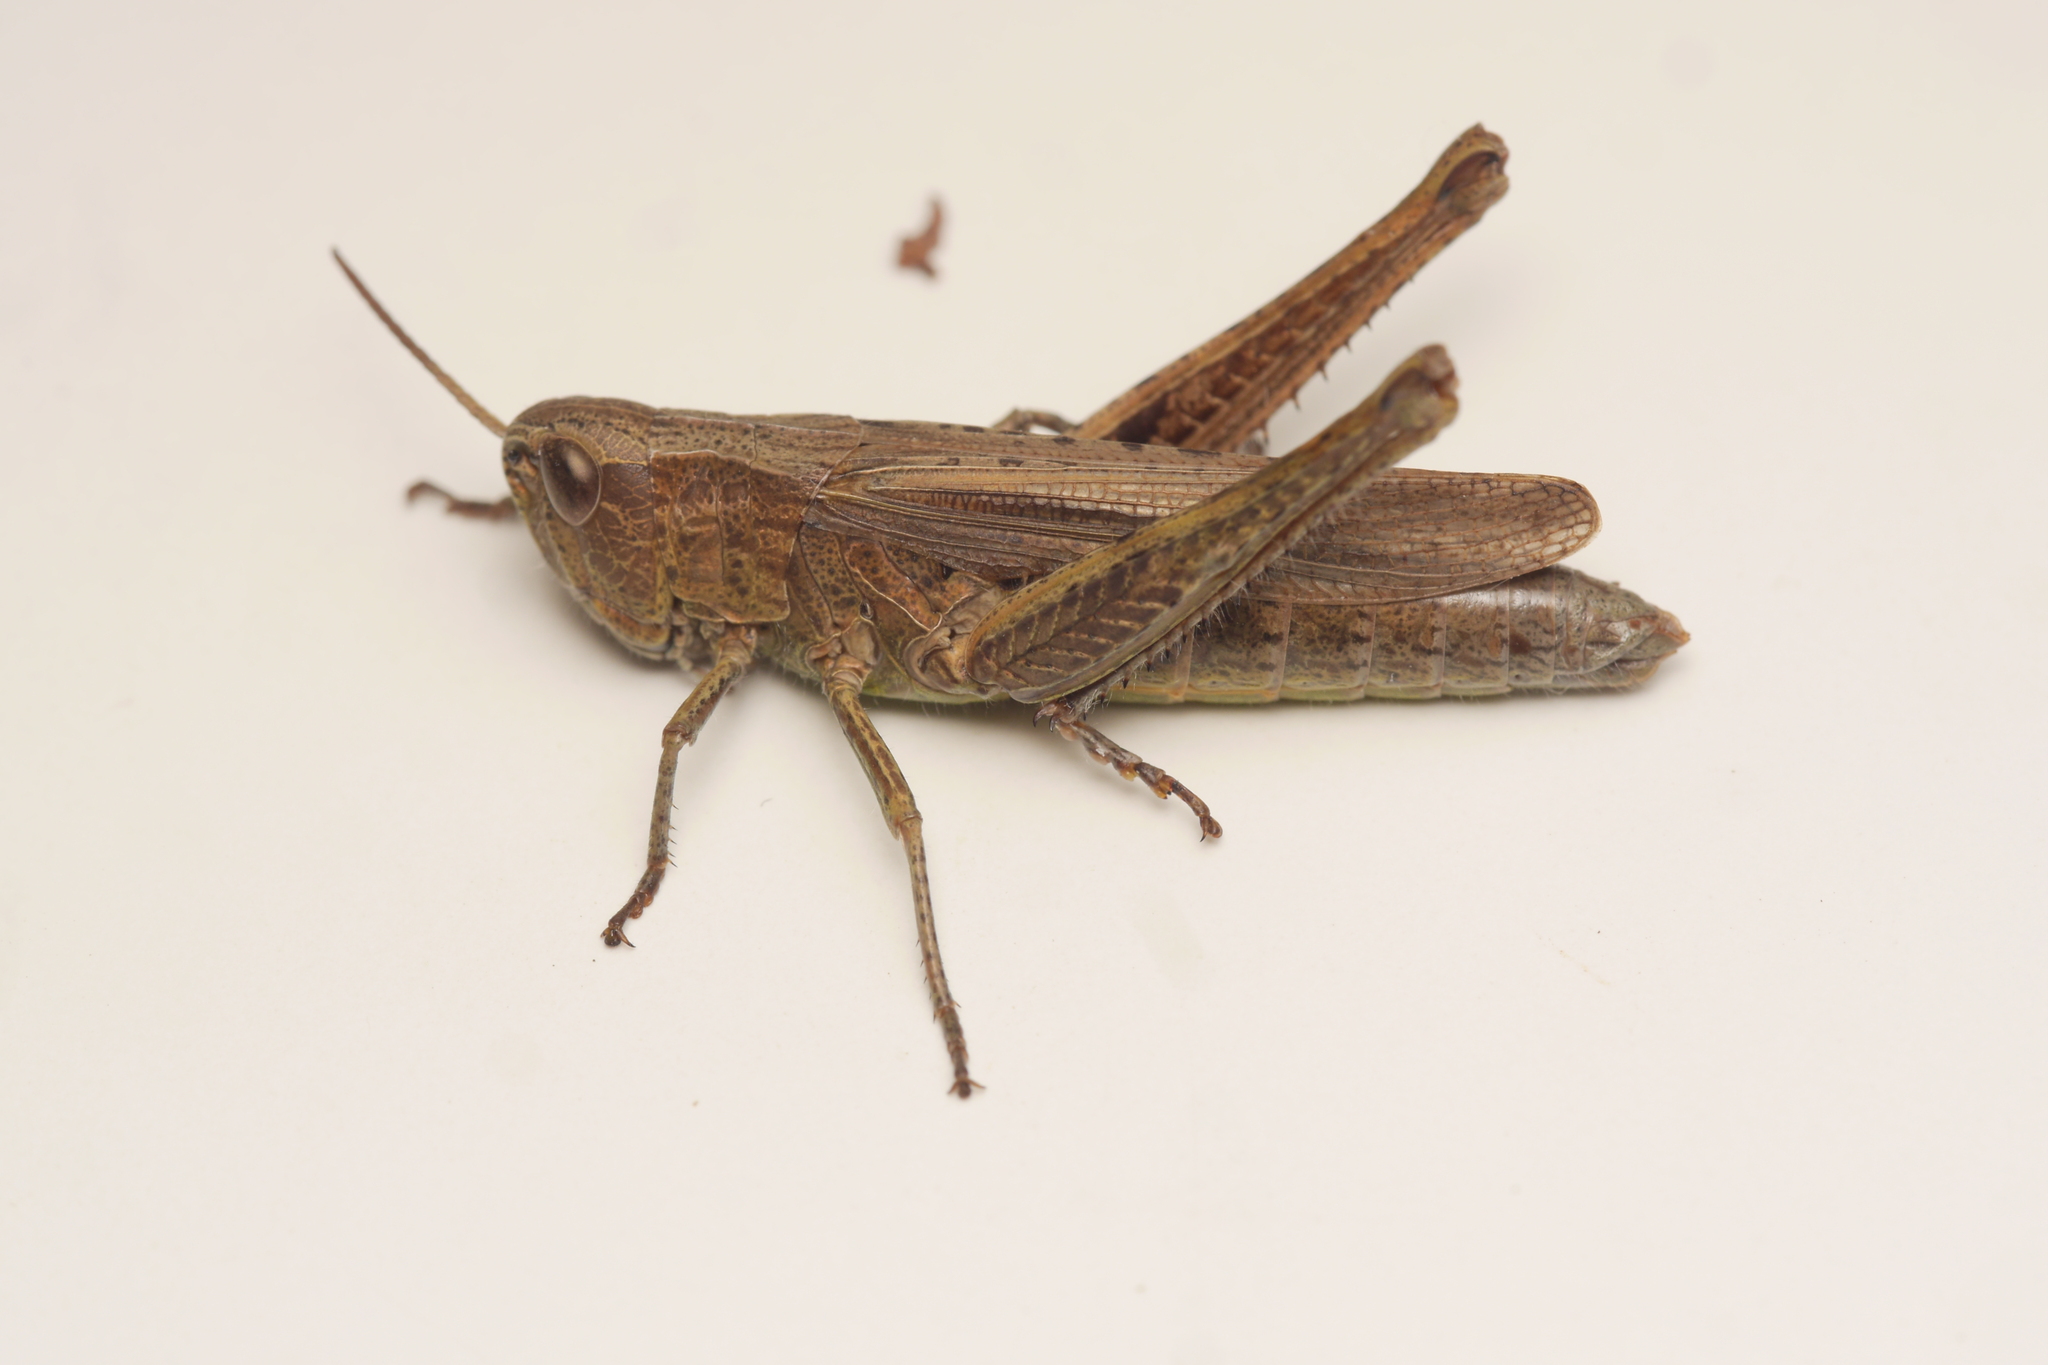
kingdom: Animalia
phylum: Arthropoda
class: Insecta
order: Orthoptera
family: Acrididae
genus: Chorthippus
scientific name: Chorthippus dorsatus
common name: Steppe grasshopper
